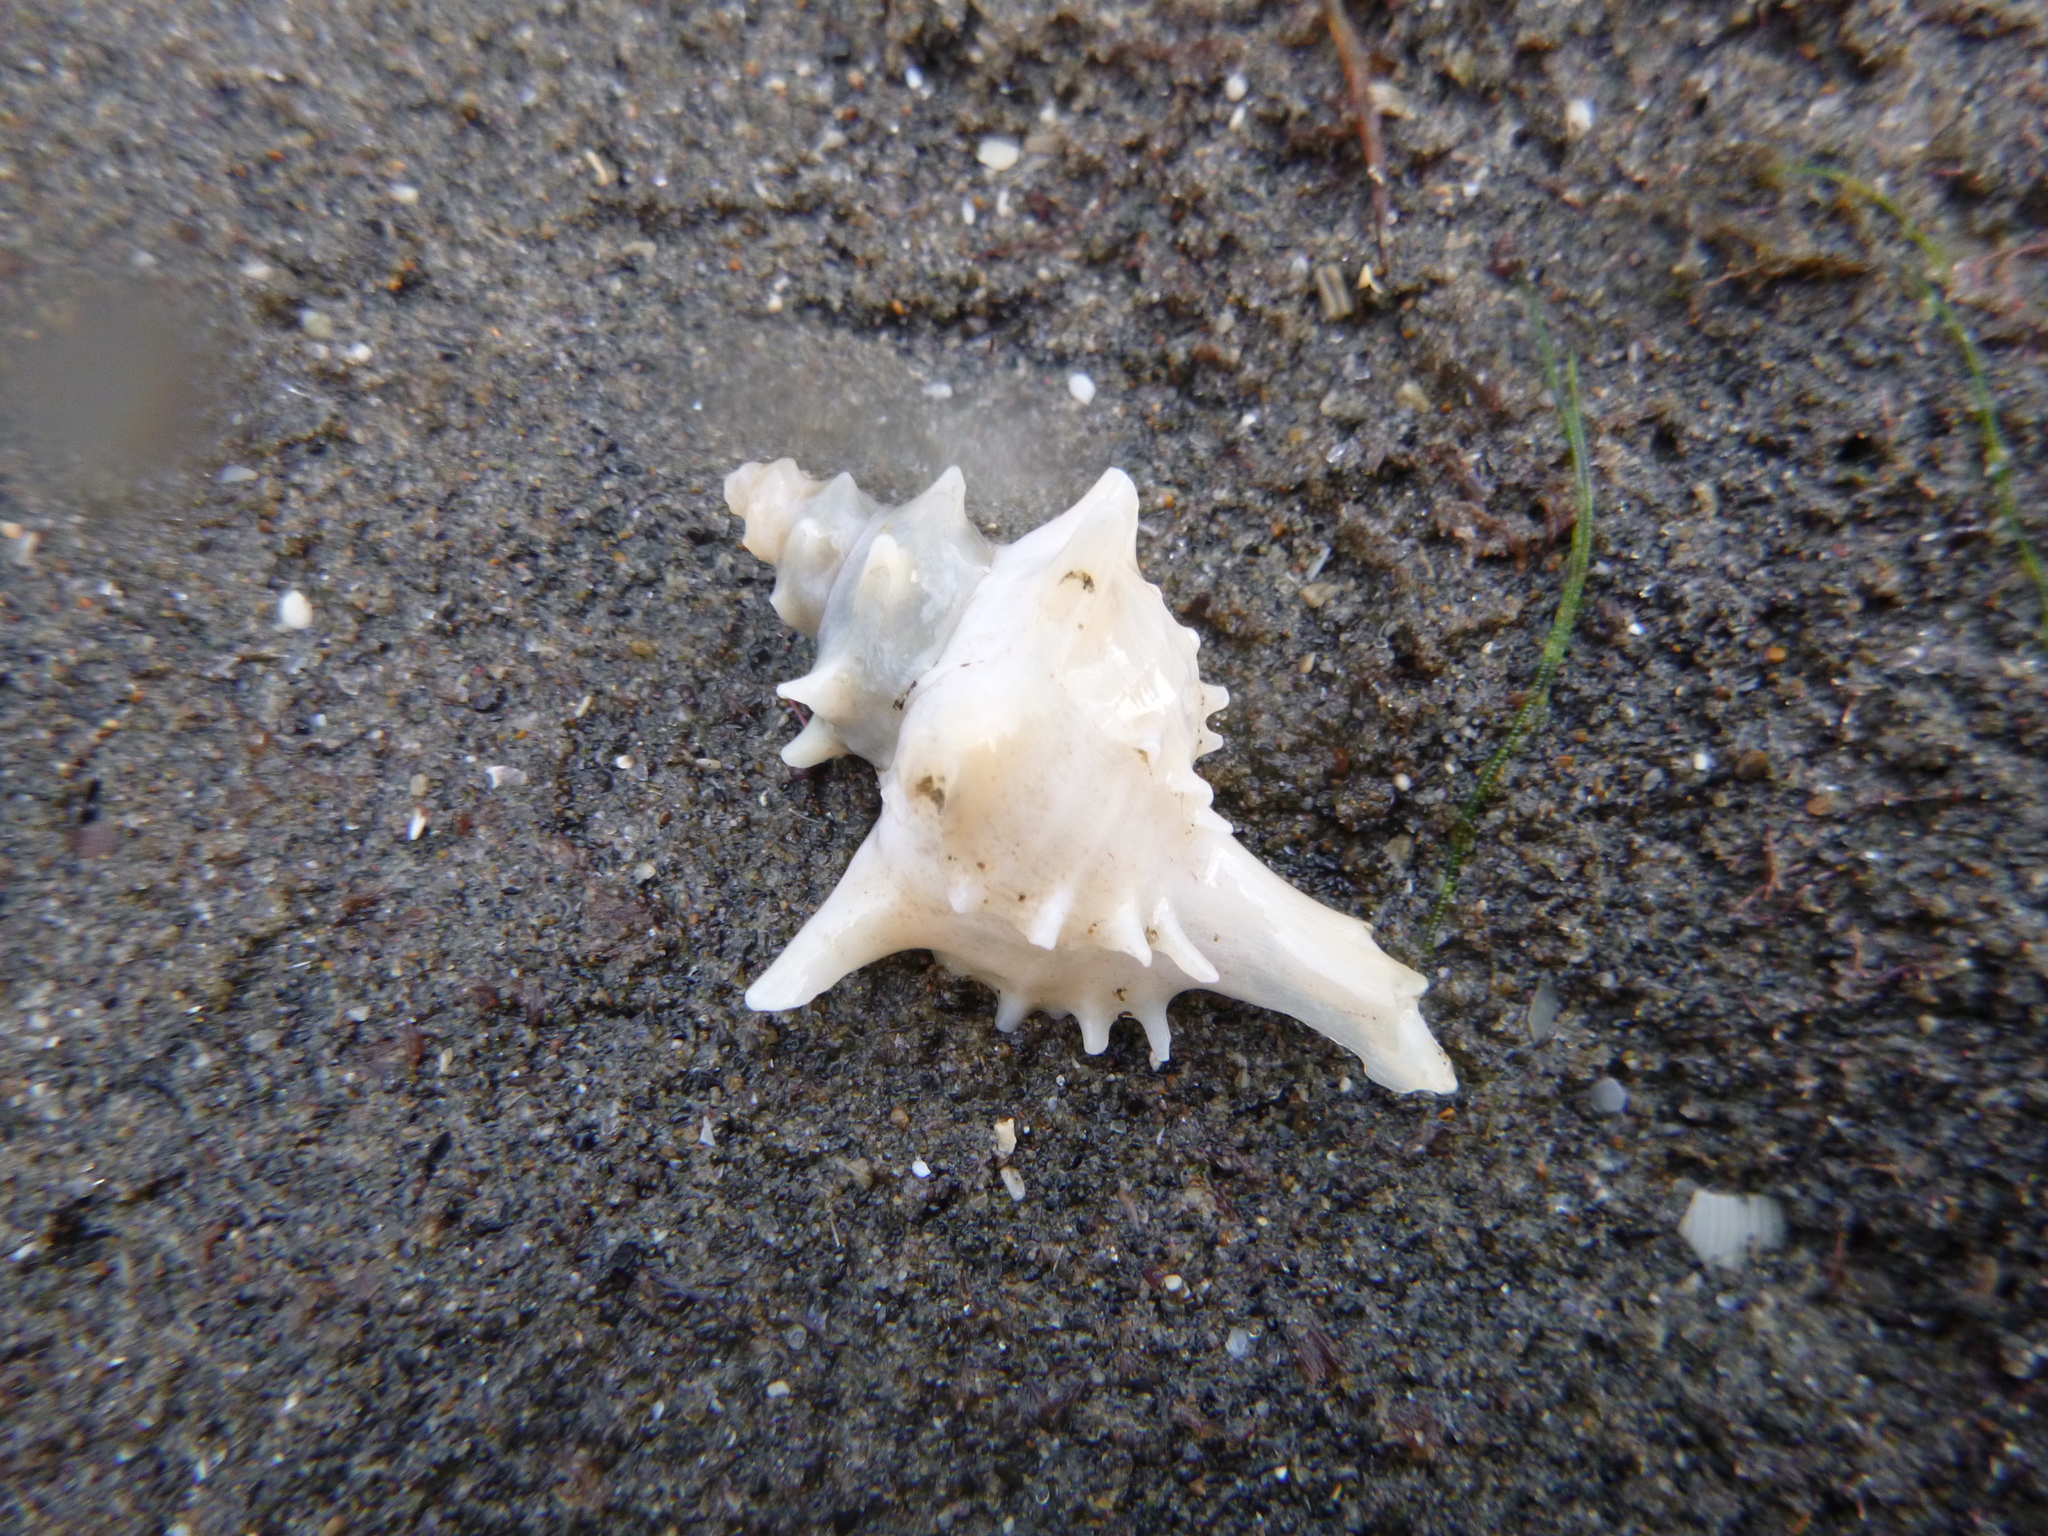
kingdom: Animalia
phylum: Mollusca
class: Gastropoda
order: Neogastropoda
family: Muricidae
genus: Poirieria
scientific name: Poirieria zelandica
